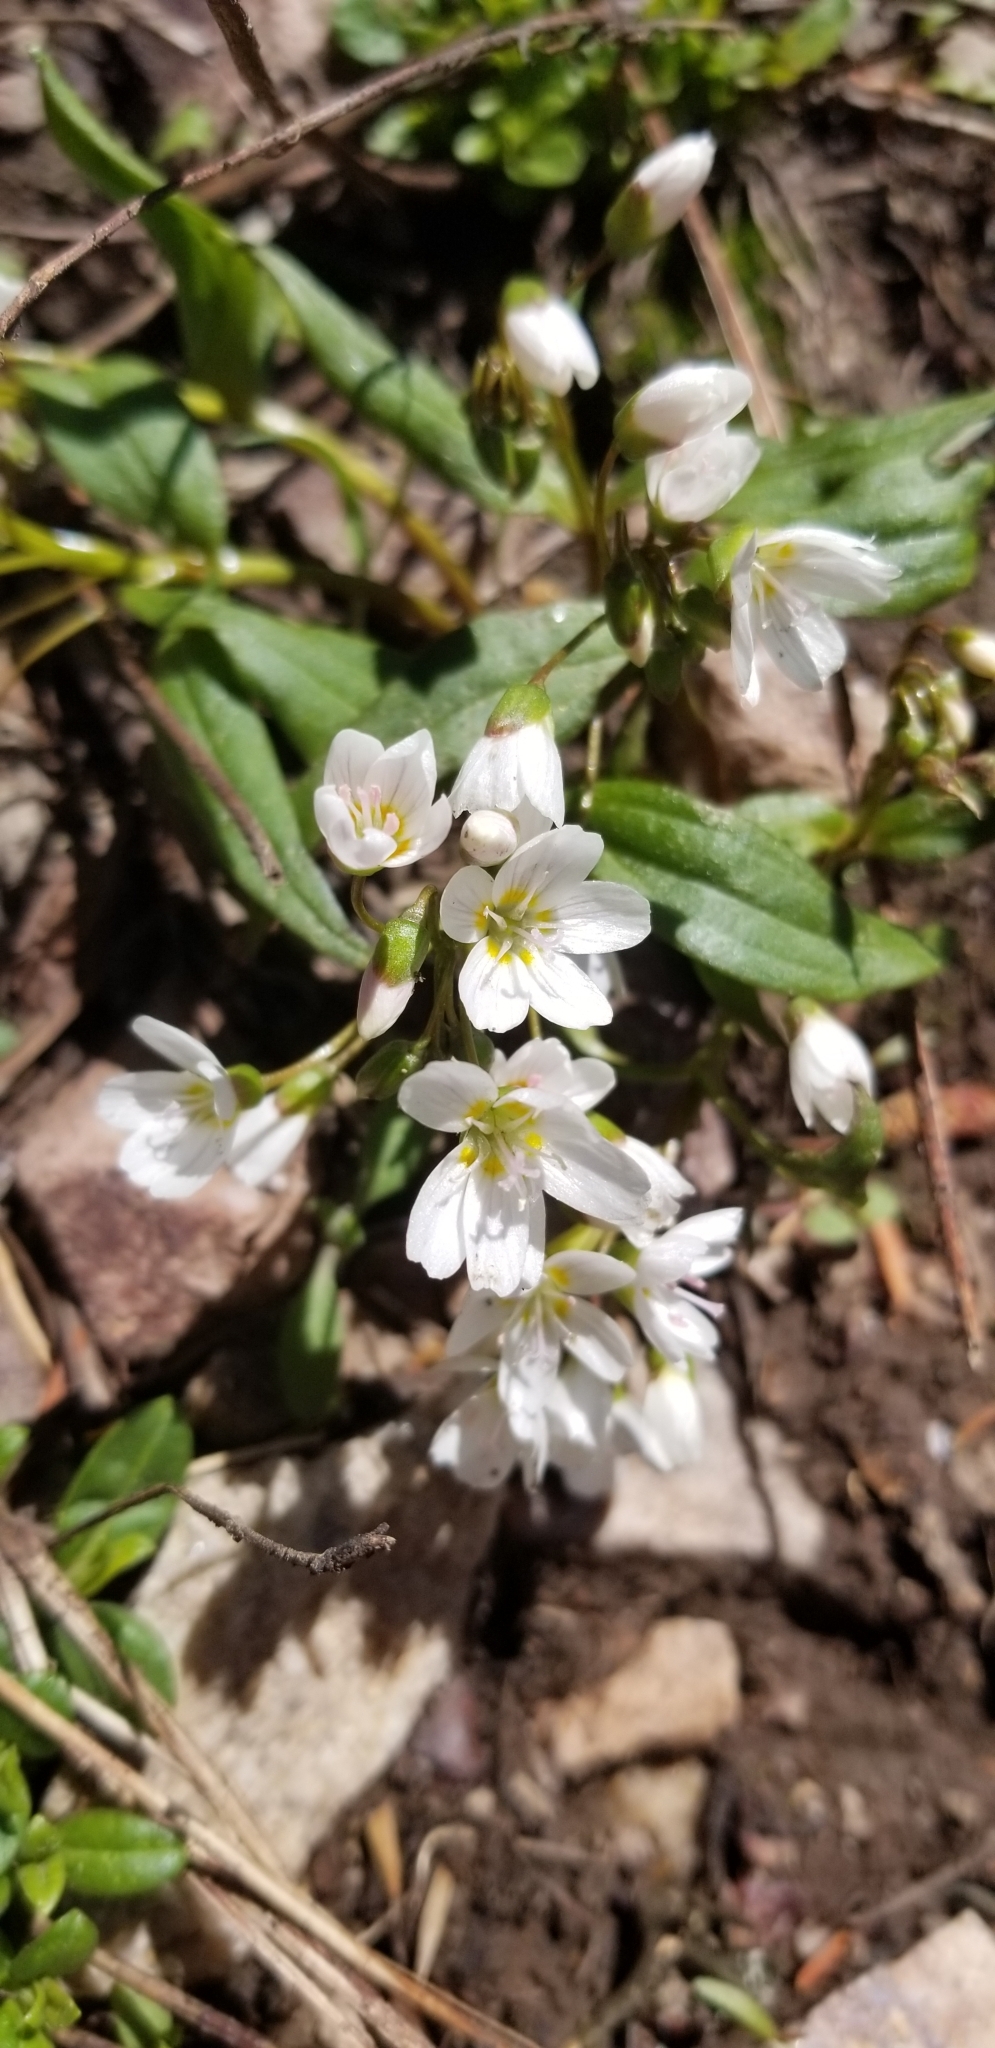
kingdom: Plantae
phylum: Tracheophyta
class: Magnoliopsida
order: Caryophyllales
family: Montiaceae
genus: Claytonia
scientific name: Claytonia lanceolata
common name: Western spring-beauty
